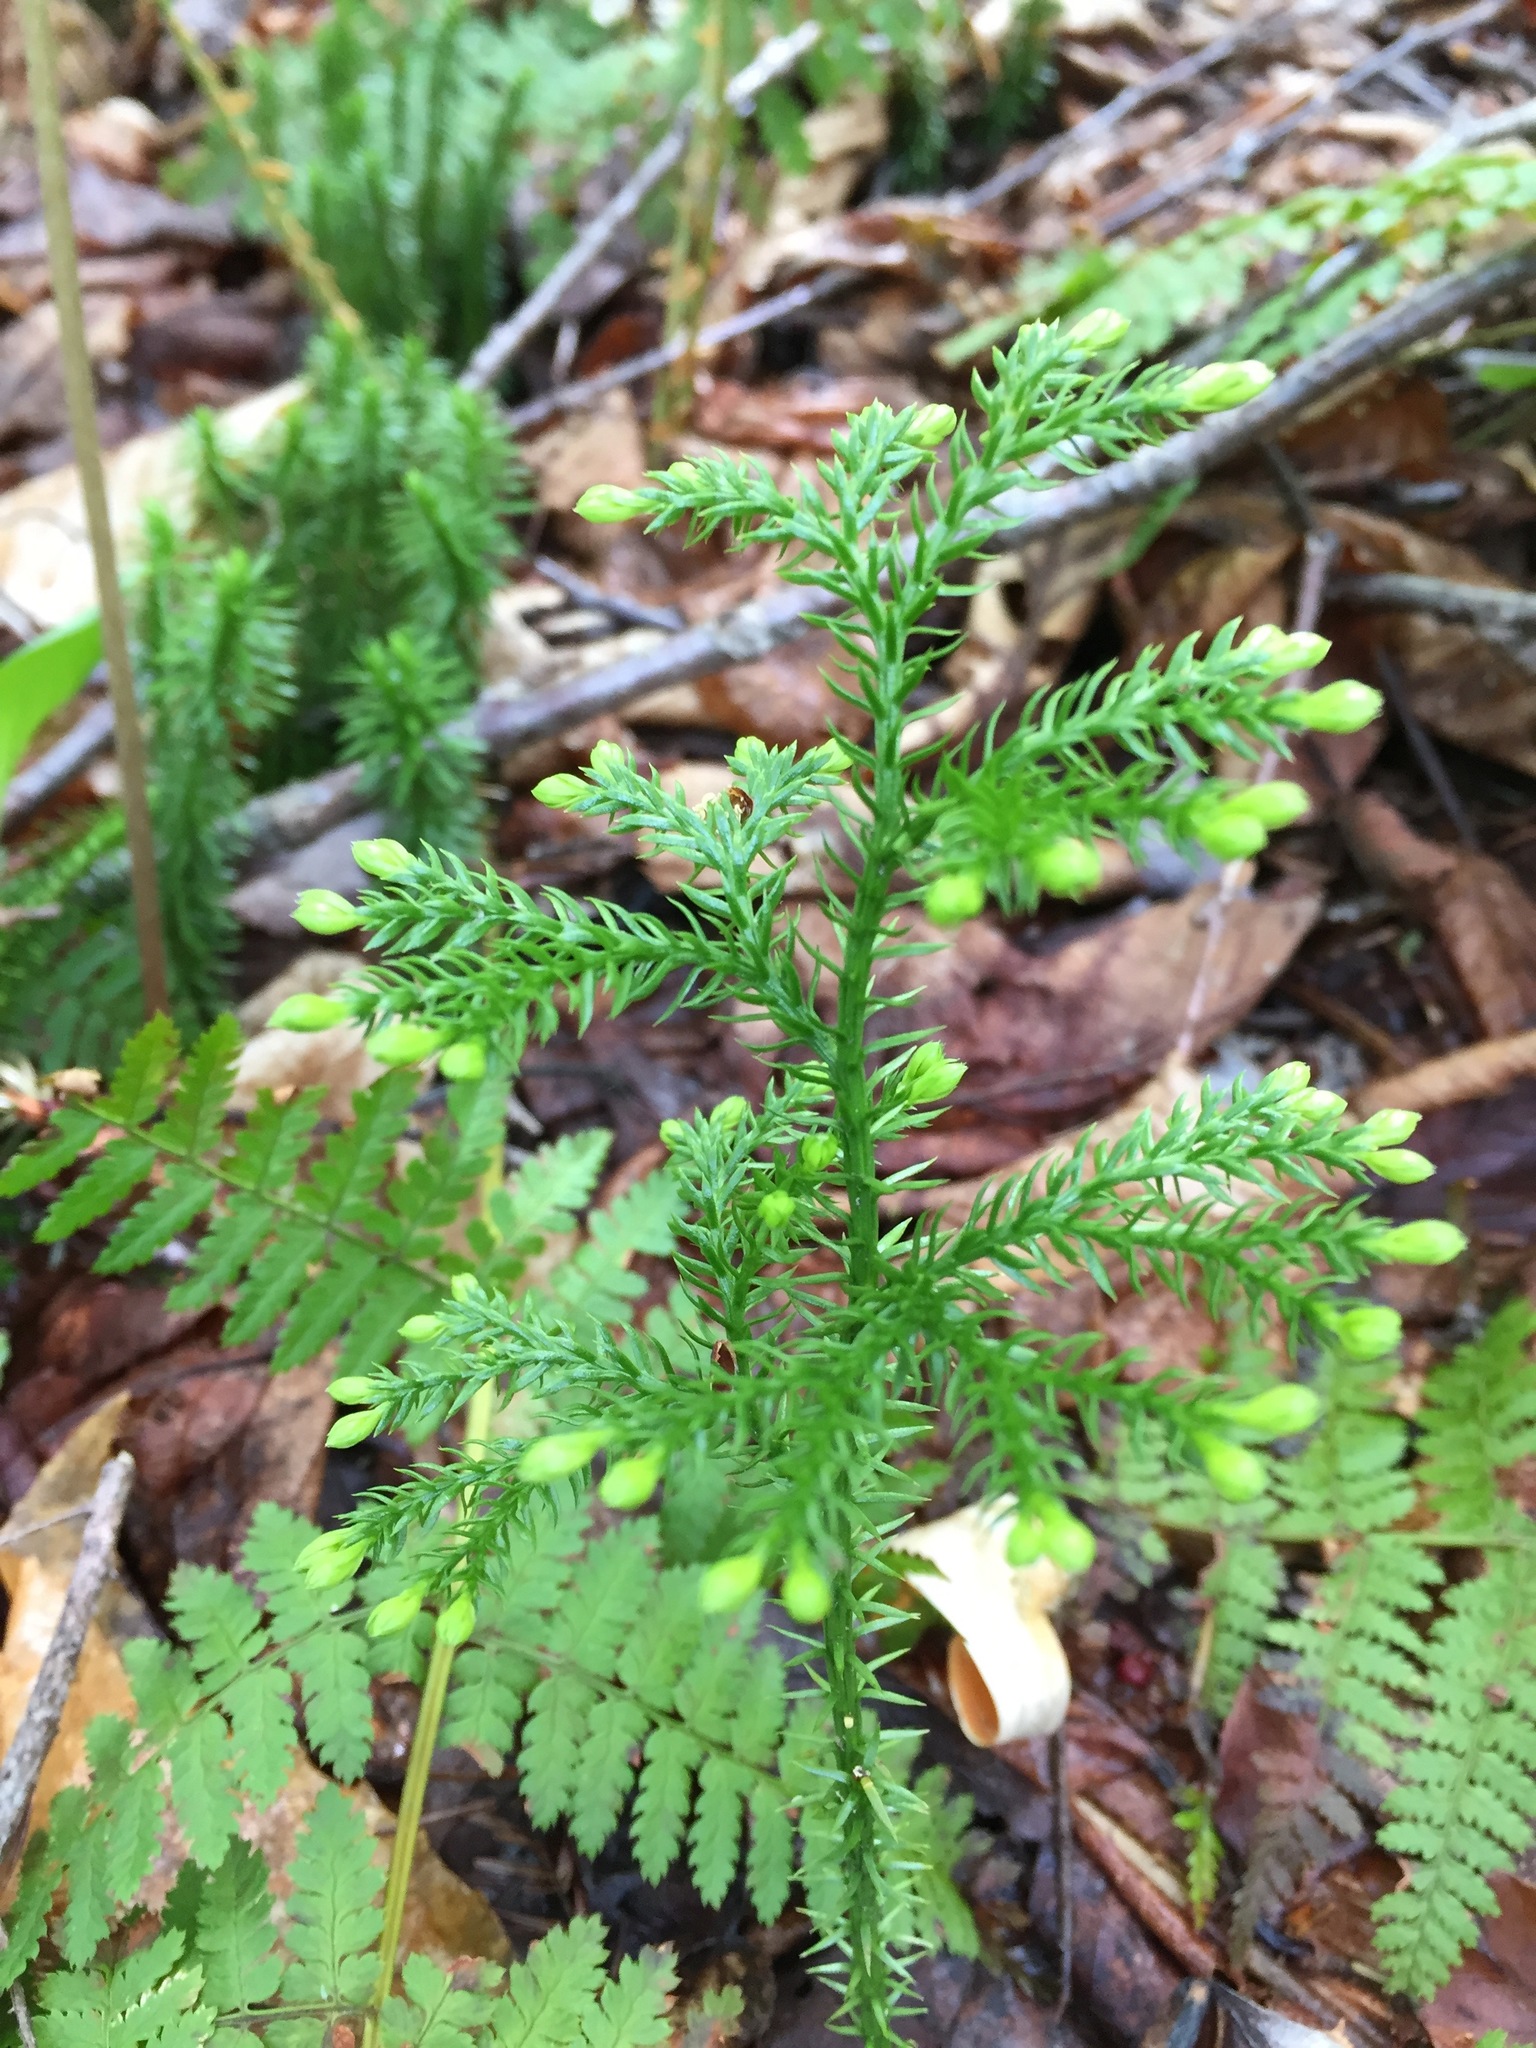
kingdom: Plantae
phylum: Tracheophyta
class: Lycopodiopsida
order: Lycopodiales
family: Lycopodiaceae
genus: Dendrolycopodium
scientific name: Dendrolycopodium dendroideum
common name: Northern tree-clubmoss
